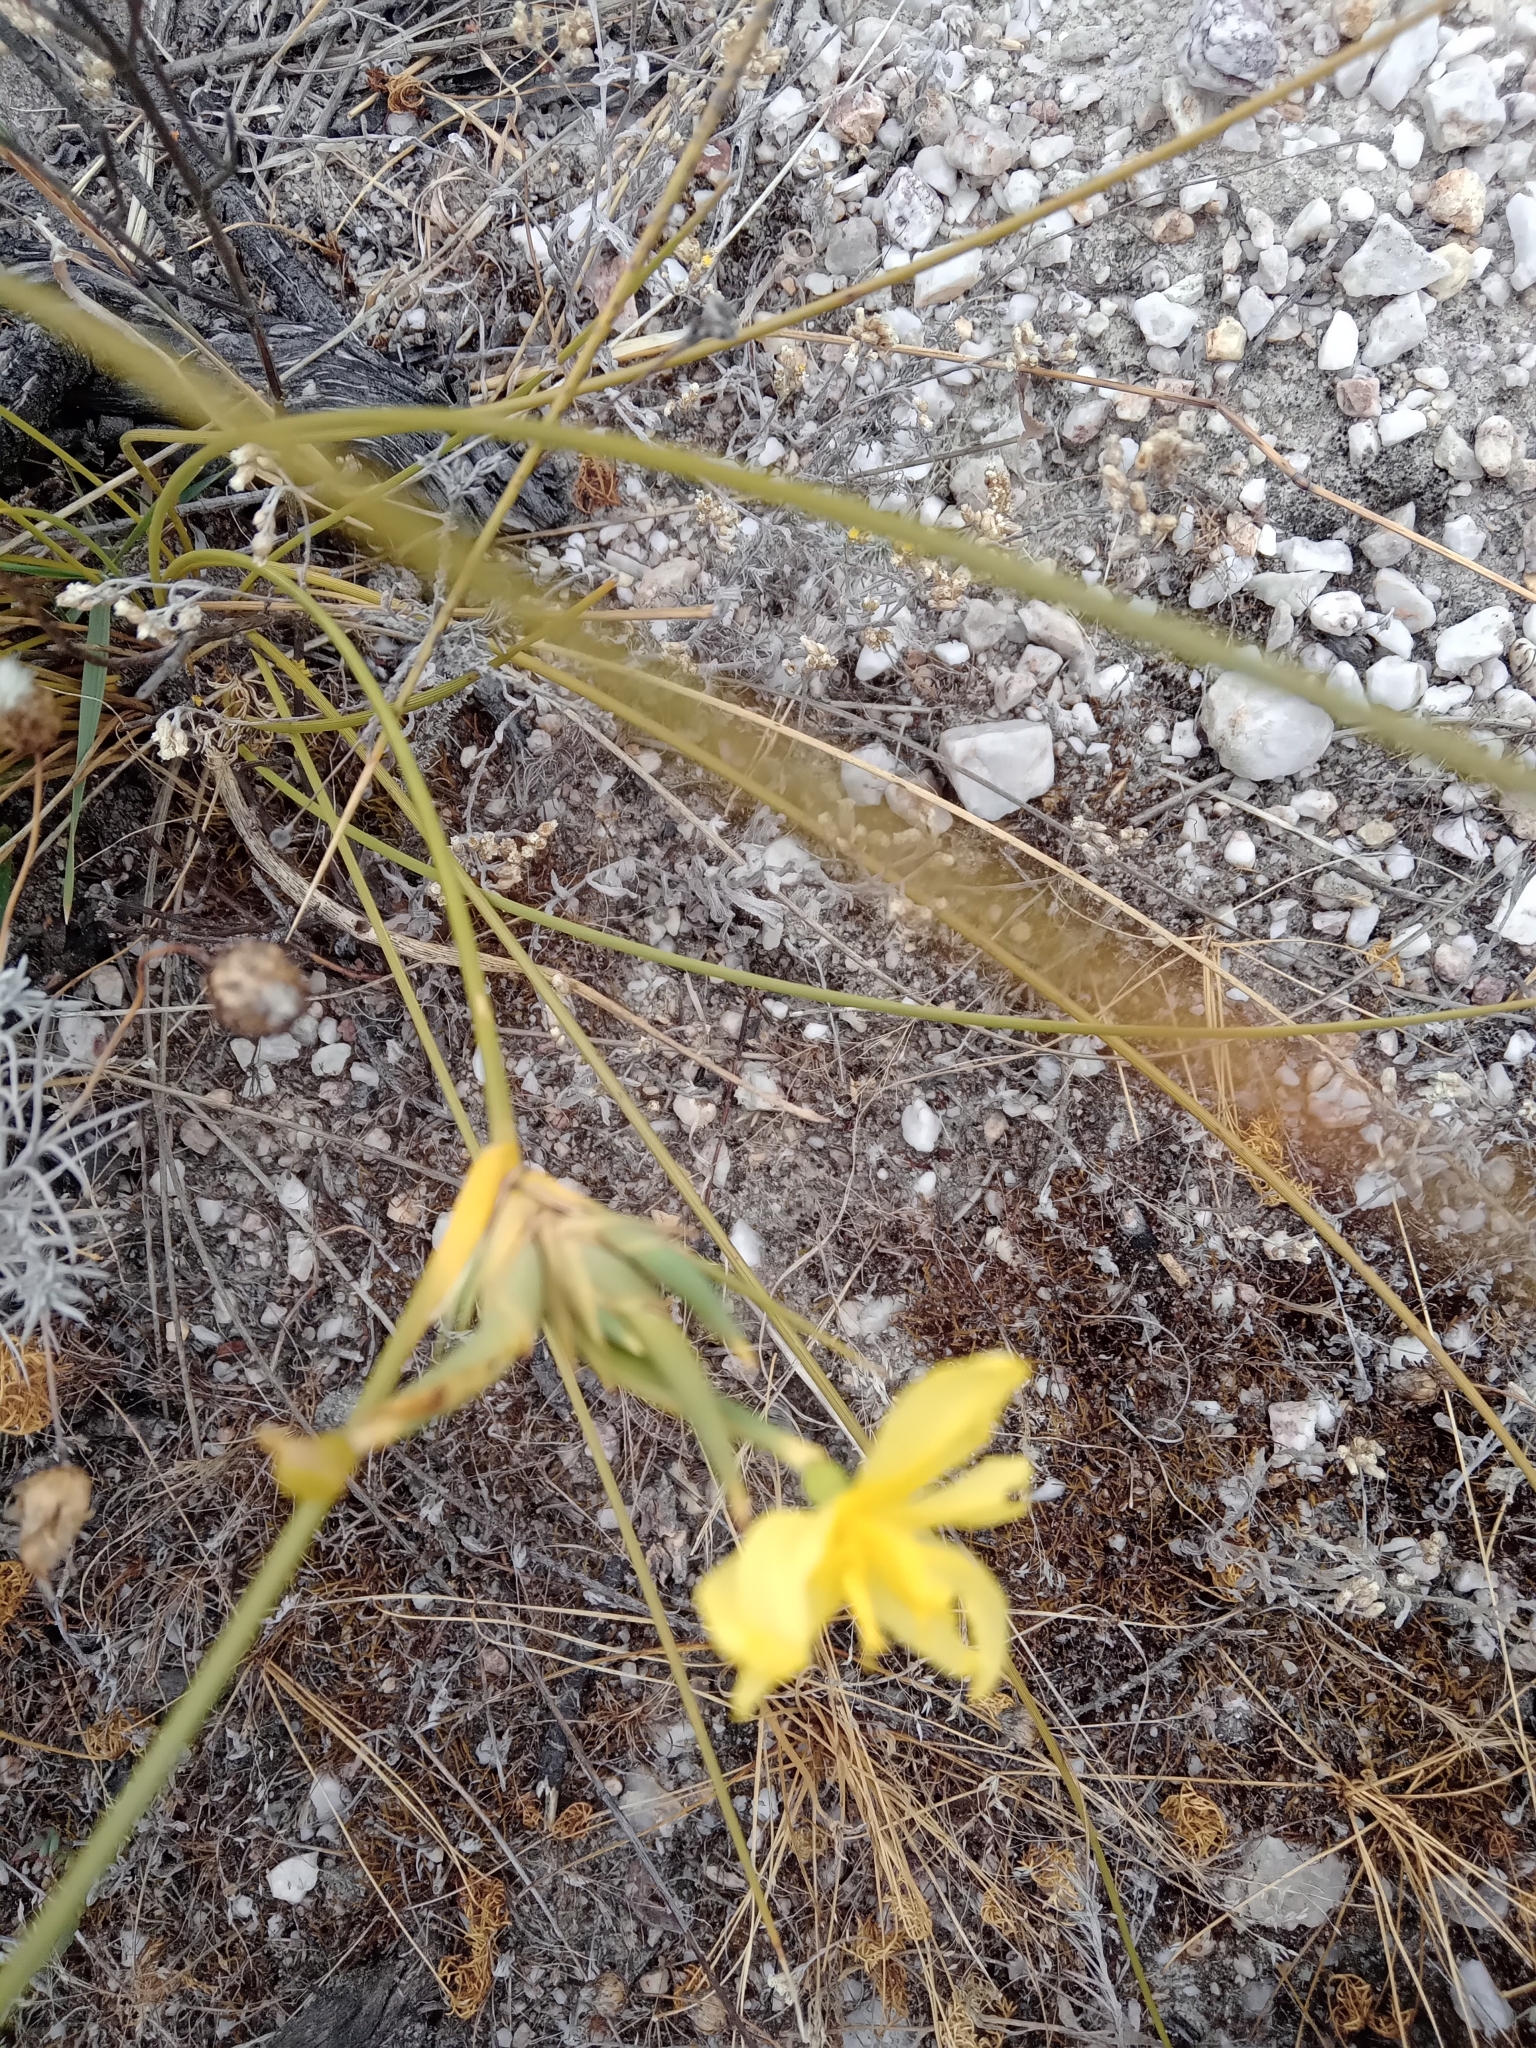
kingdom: Plantae
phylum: Tracheophyta
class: Liliopsida
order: Asparagales
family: Iridaceae
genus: Bobartia
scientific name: Bobartia indica
